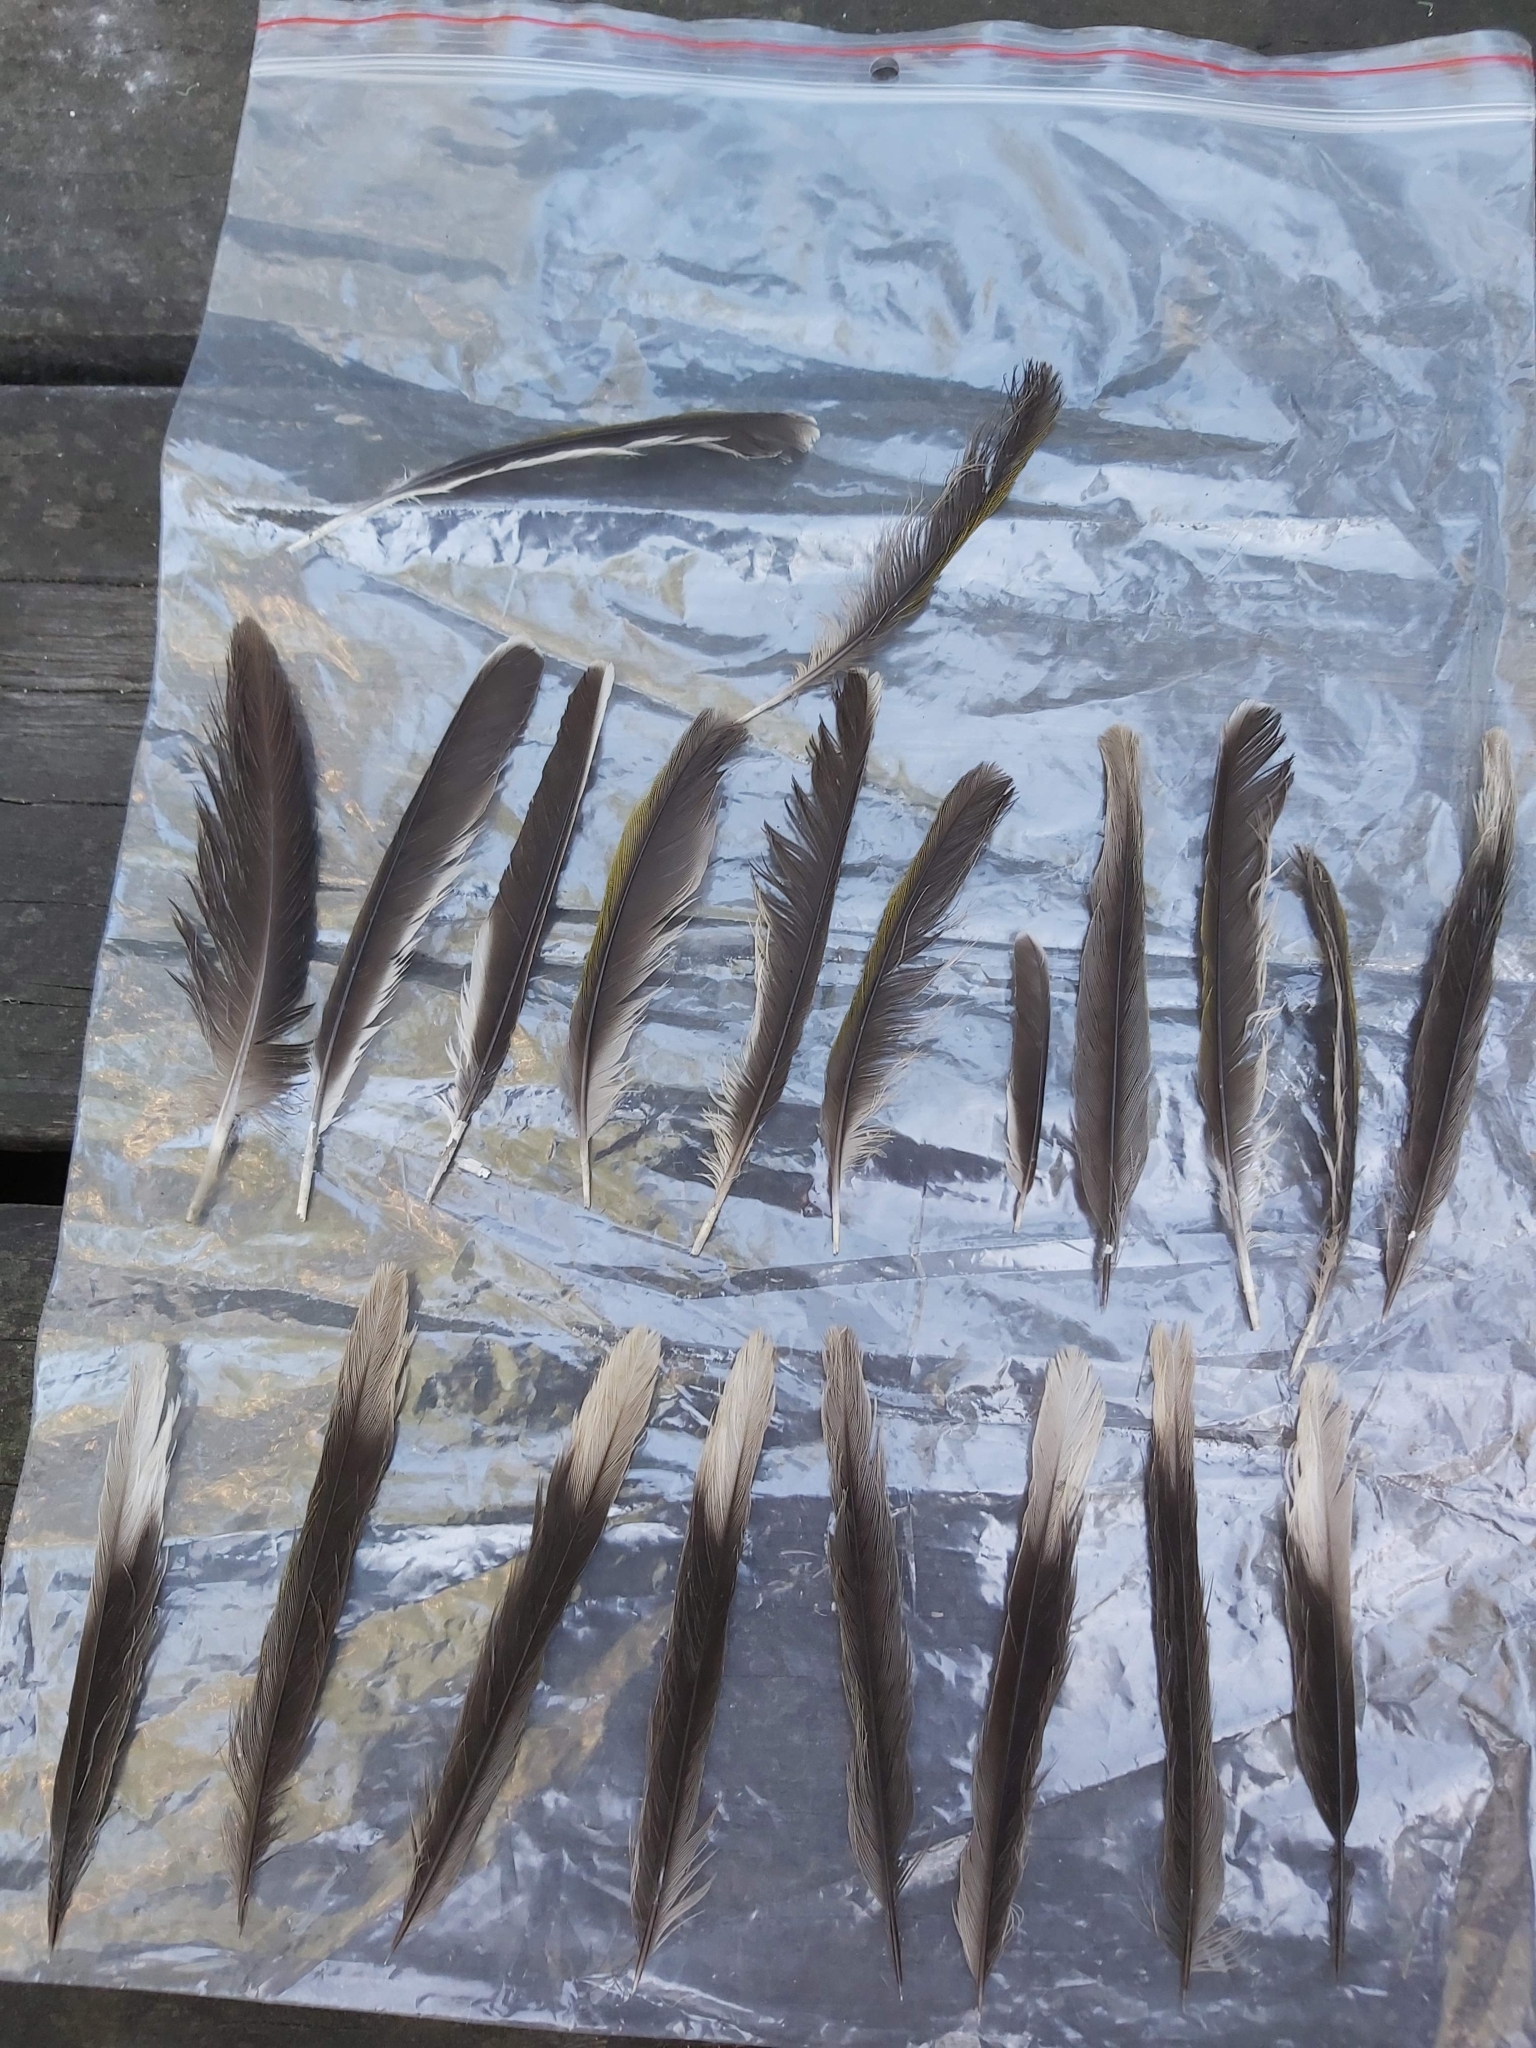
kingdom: Animalia
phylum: Chordata
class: Aves
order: Passeriformes
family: Meliphagidae
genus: Manorina
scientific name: Manorina melanocephala
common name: Noisy miner
